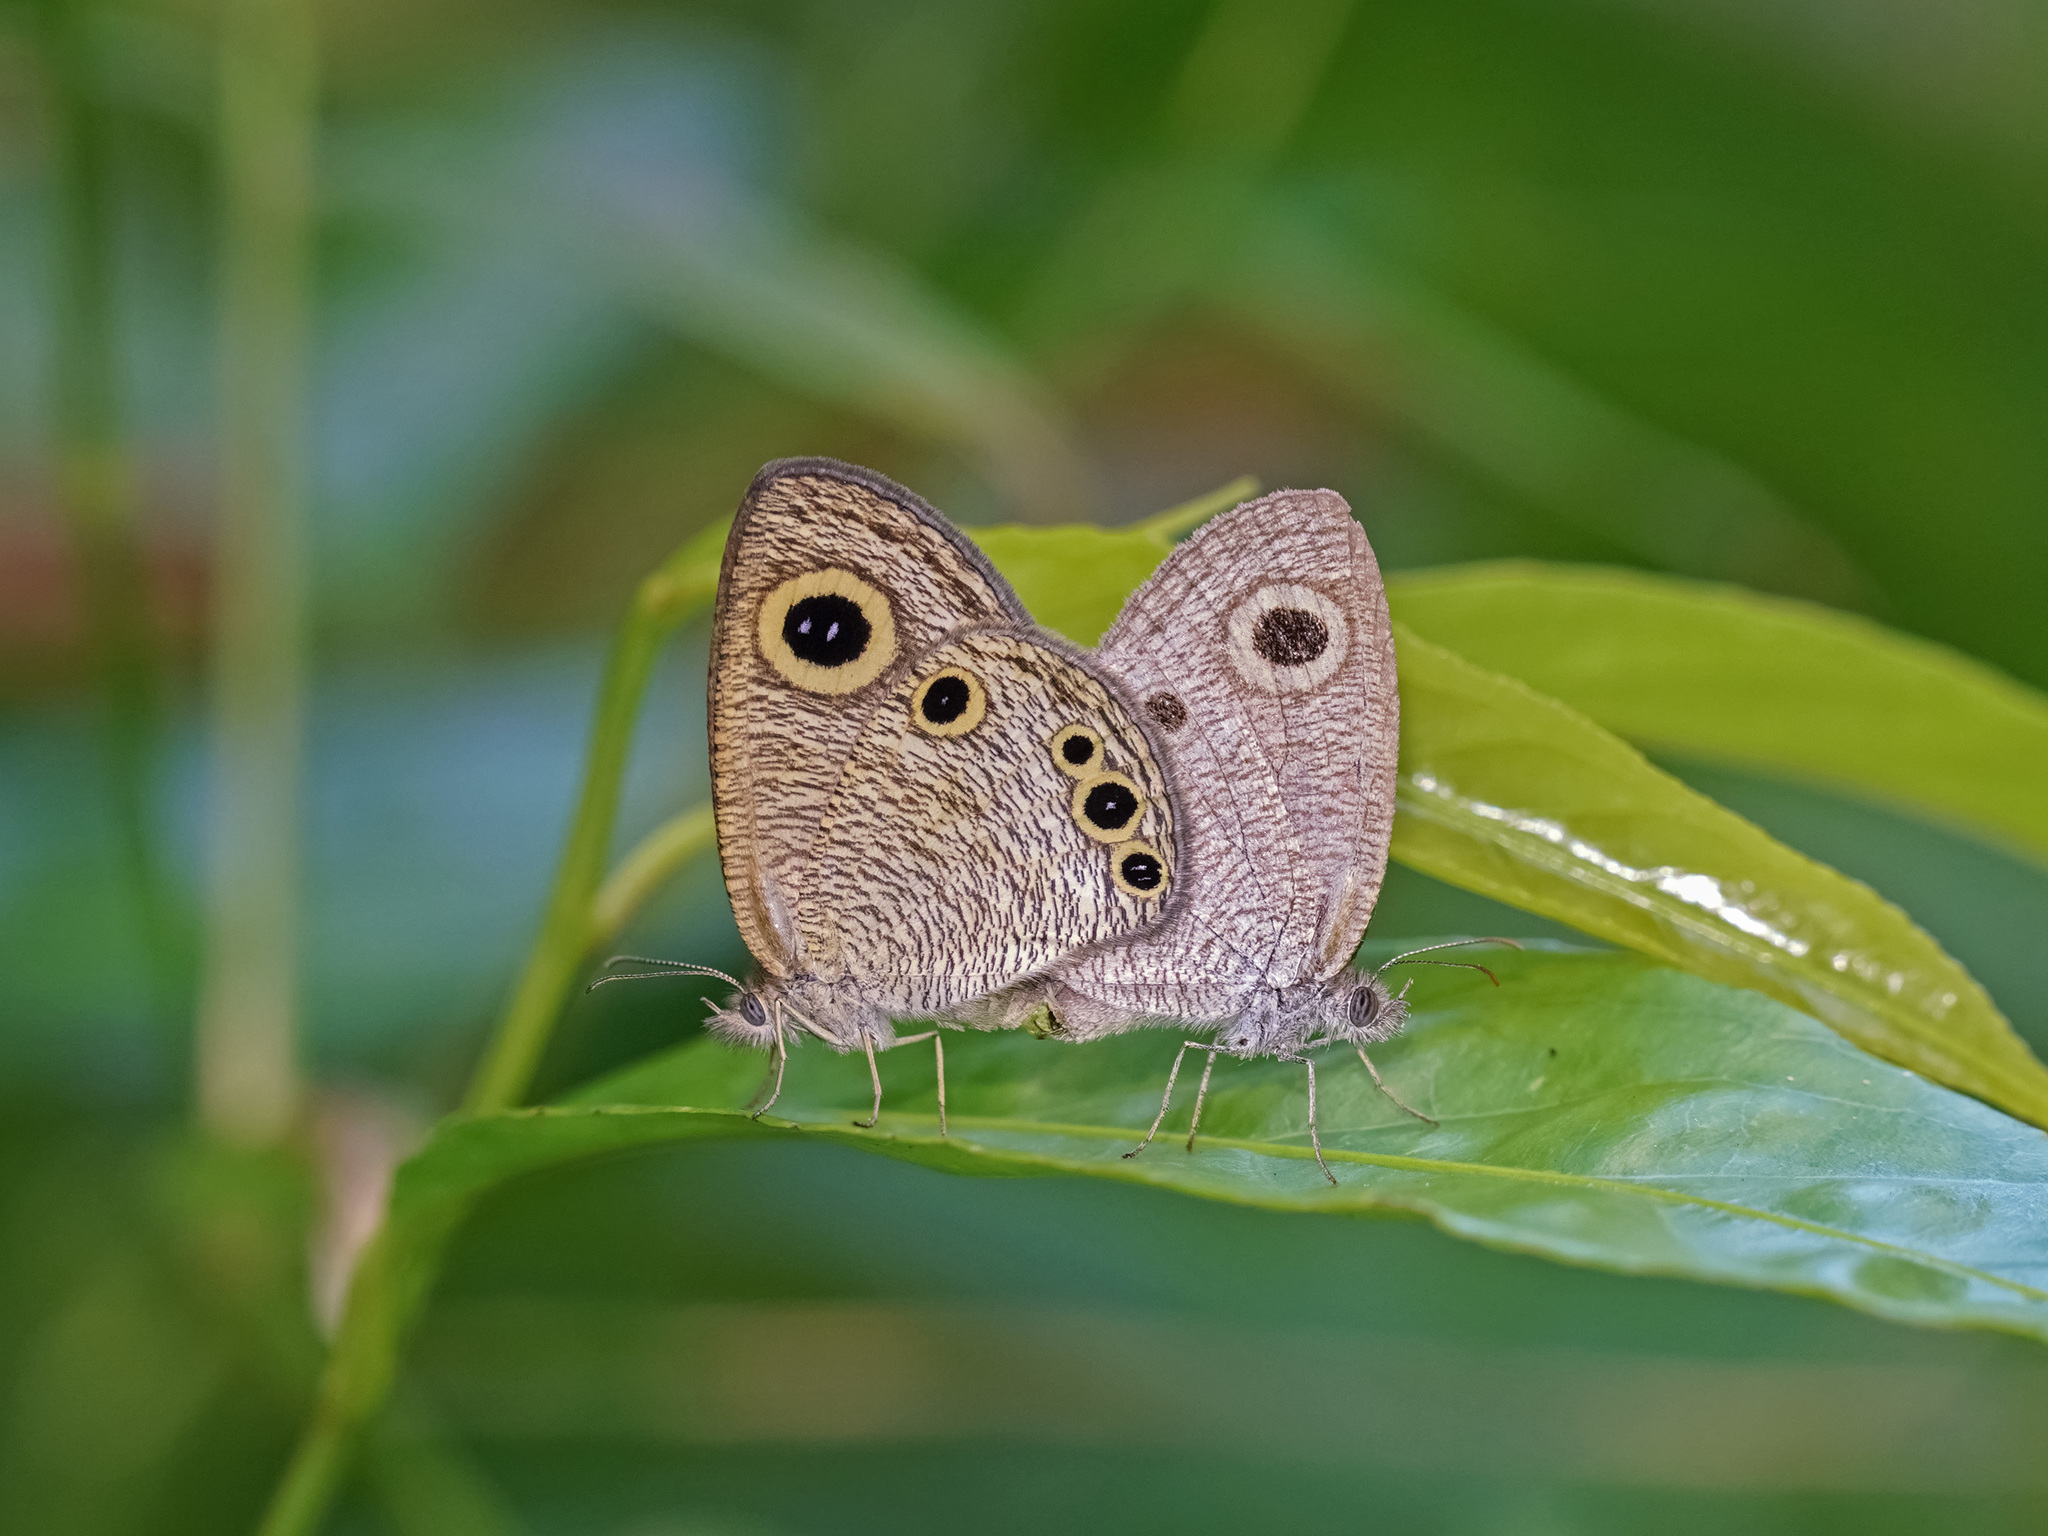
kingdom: Animalia
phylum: Arthropoda
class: Insecta
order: Lepidoptera
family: Nymphalidae
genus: Ypthima
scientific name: Ypthima huebneri
